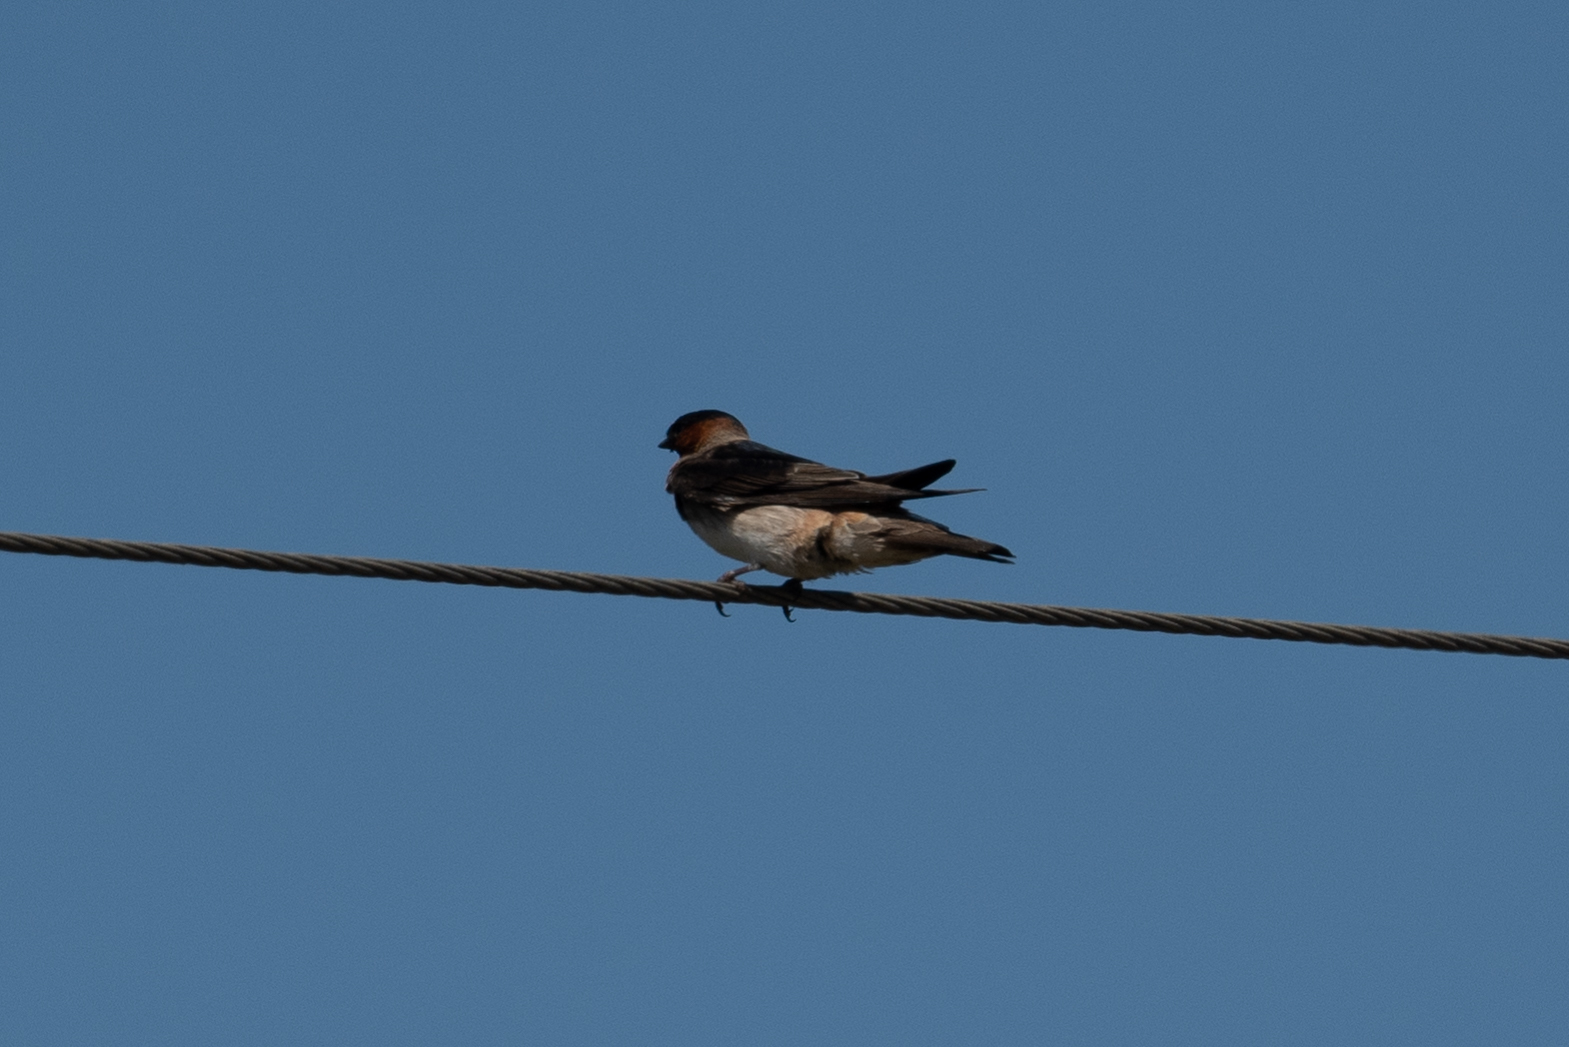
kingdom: Animalia
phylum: Chordata
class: Aves
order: Passeriformes
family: Hirundinidae
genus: Petrochelidon
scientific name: Petrochelidon pyrrhonota
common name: American cliff swallow
